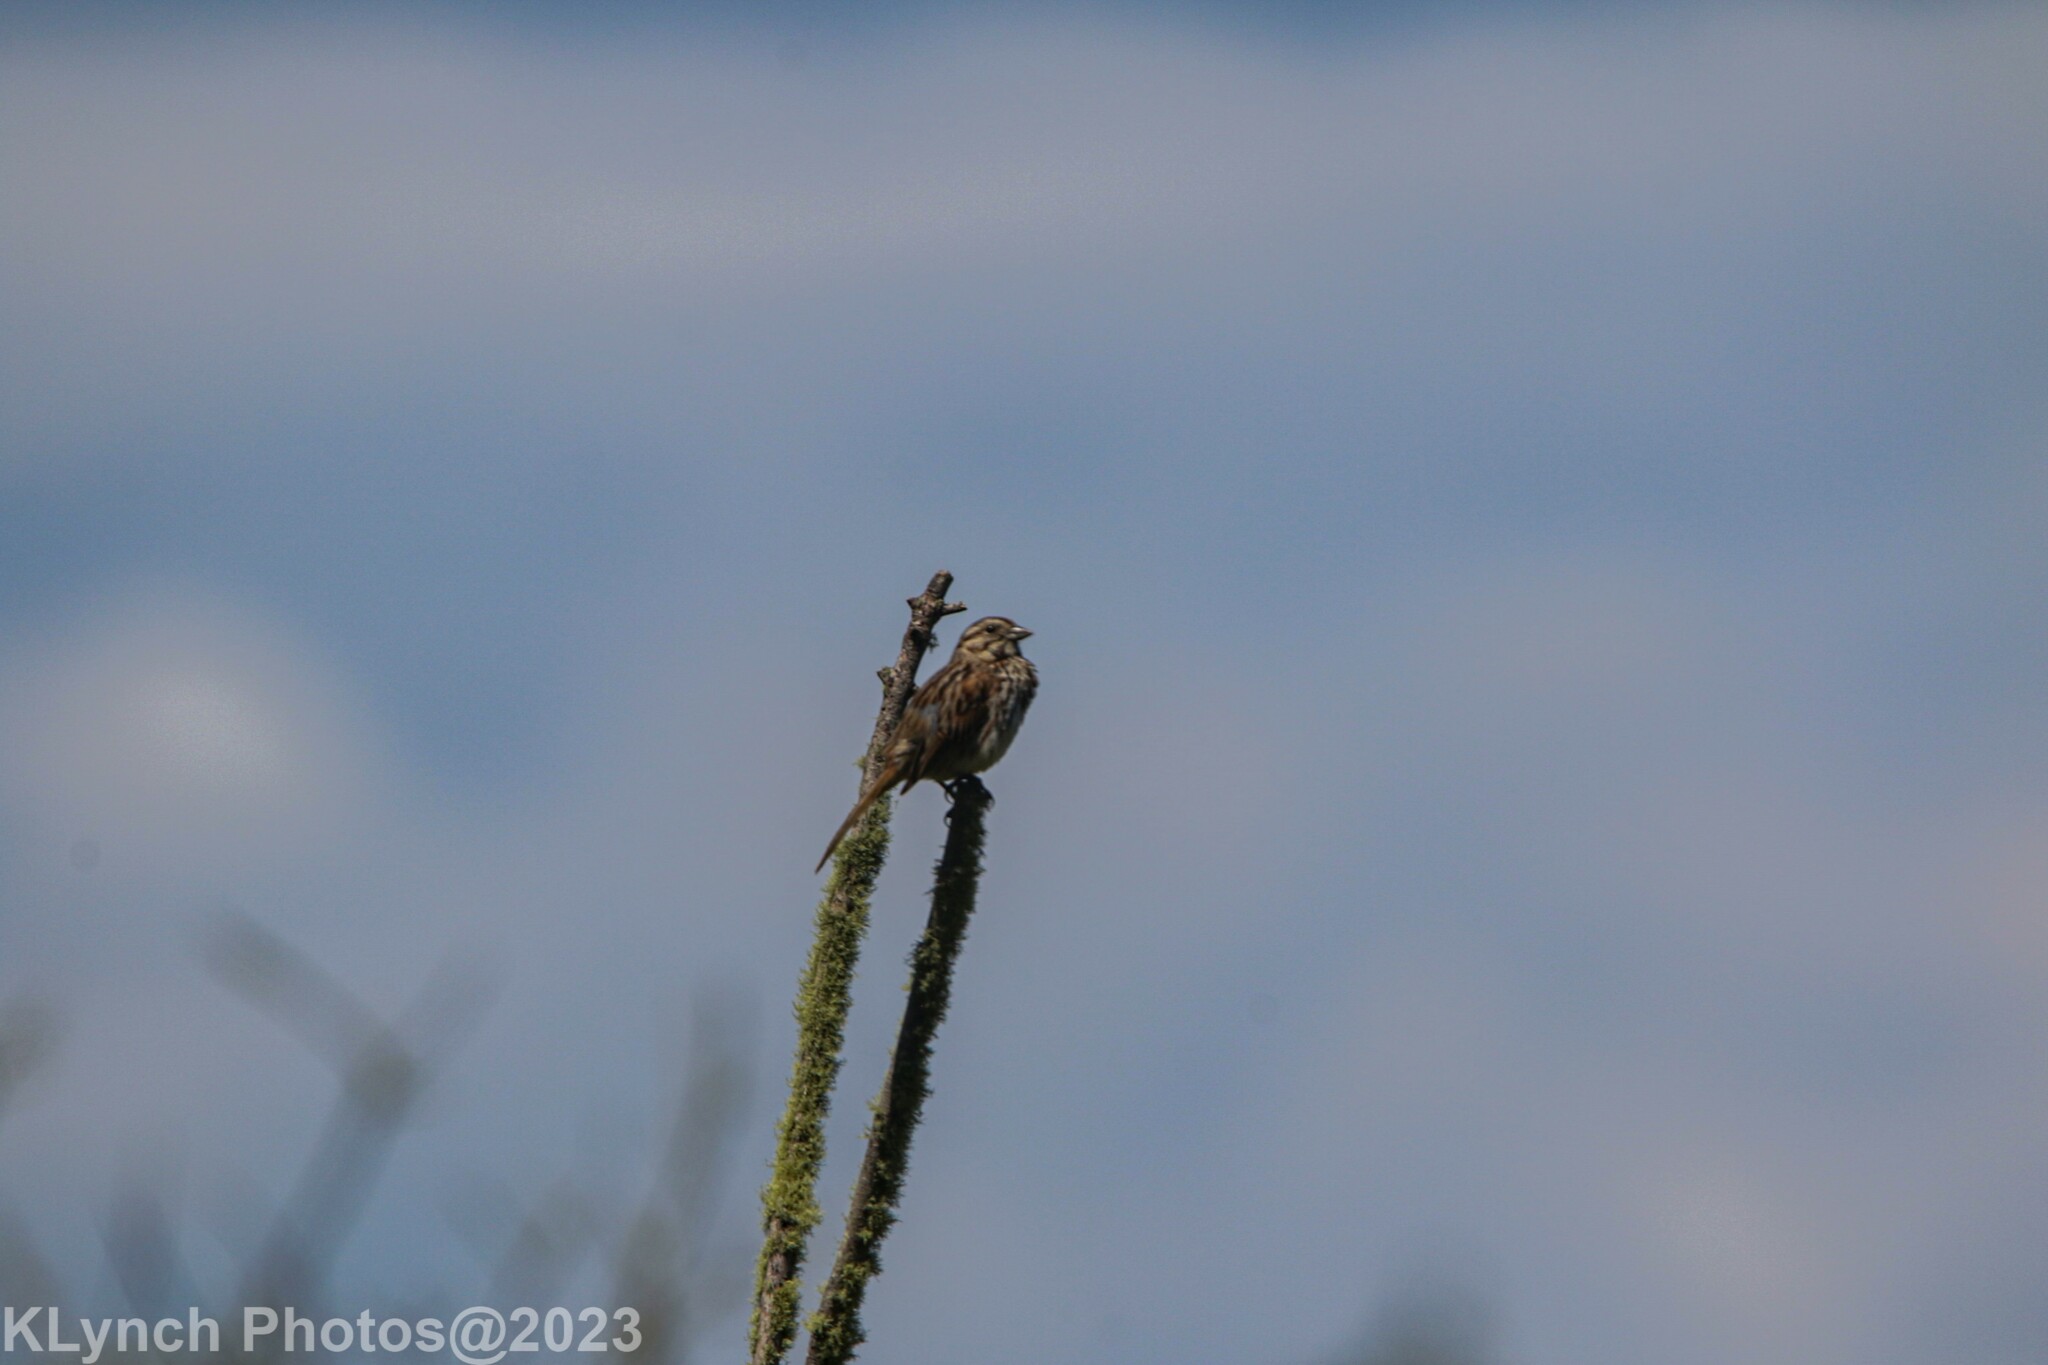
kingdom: Animalia
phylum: Chordata
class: Aves
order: Passeriformes
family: Passerellidae
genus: Melospiza
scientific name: Melospiza melodia
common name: Song sparrow
